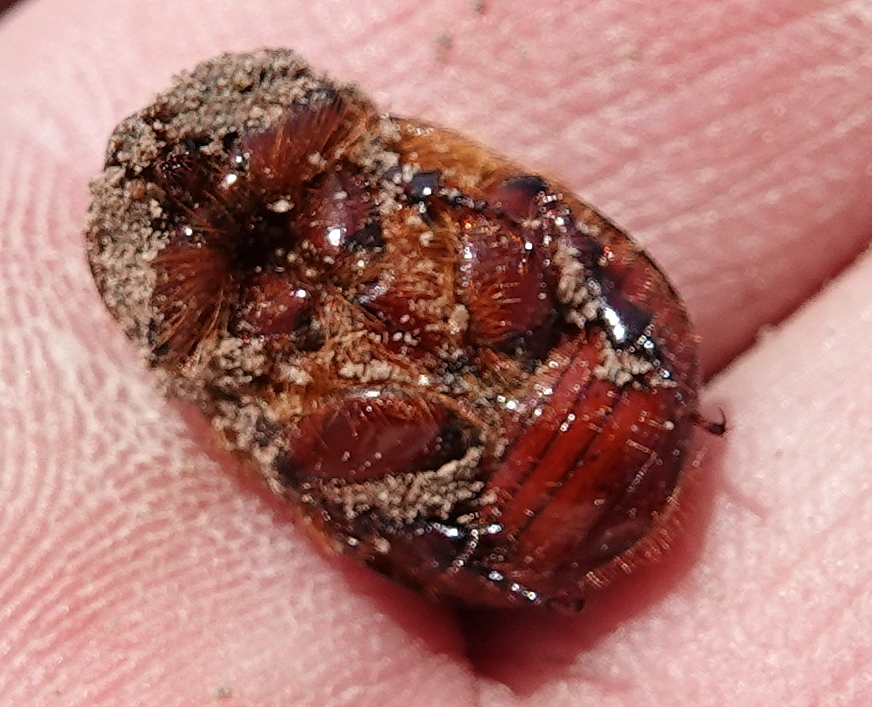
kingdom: Animalia
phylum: Arthropoda
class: Insecta
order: Coleoptera
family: Scarabaeidae
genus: Ligyrus
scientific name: Ligyrus gibbosus
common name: Carrot beetle
